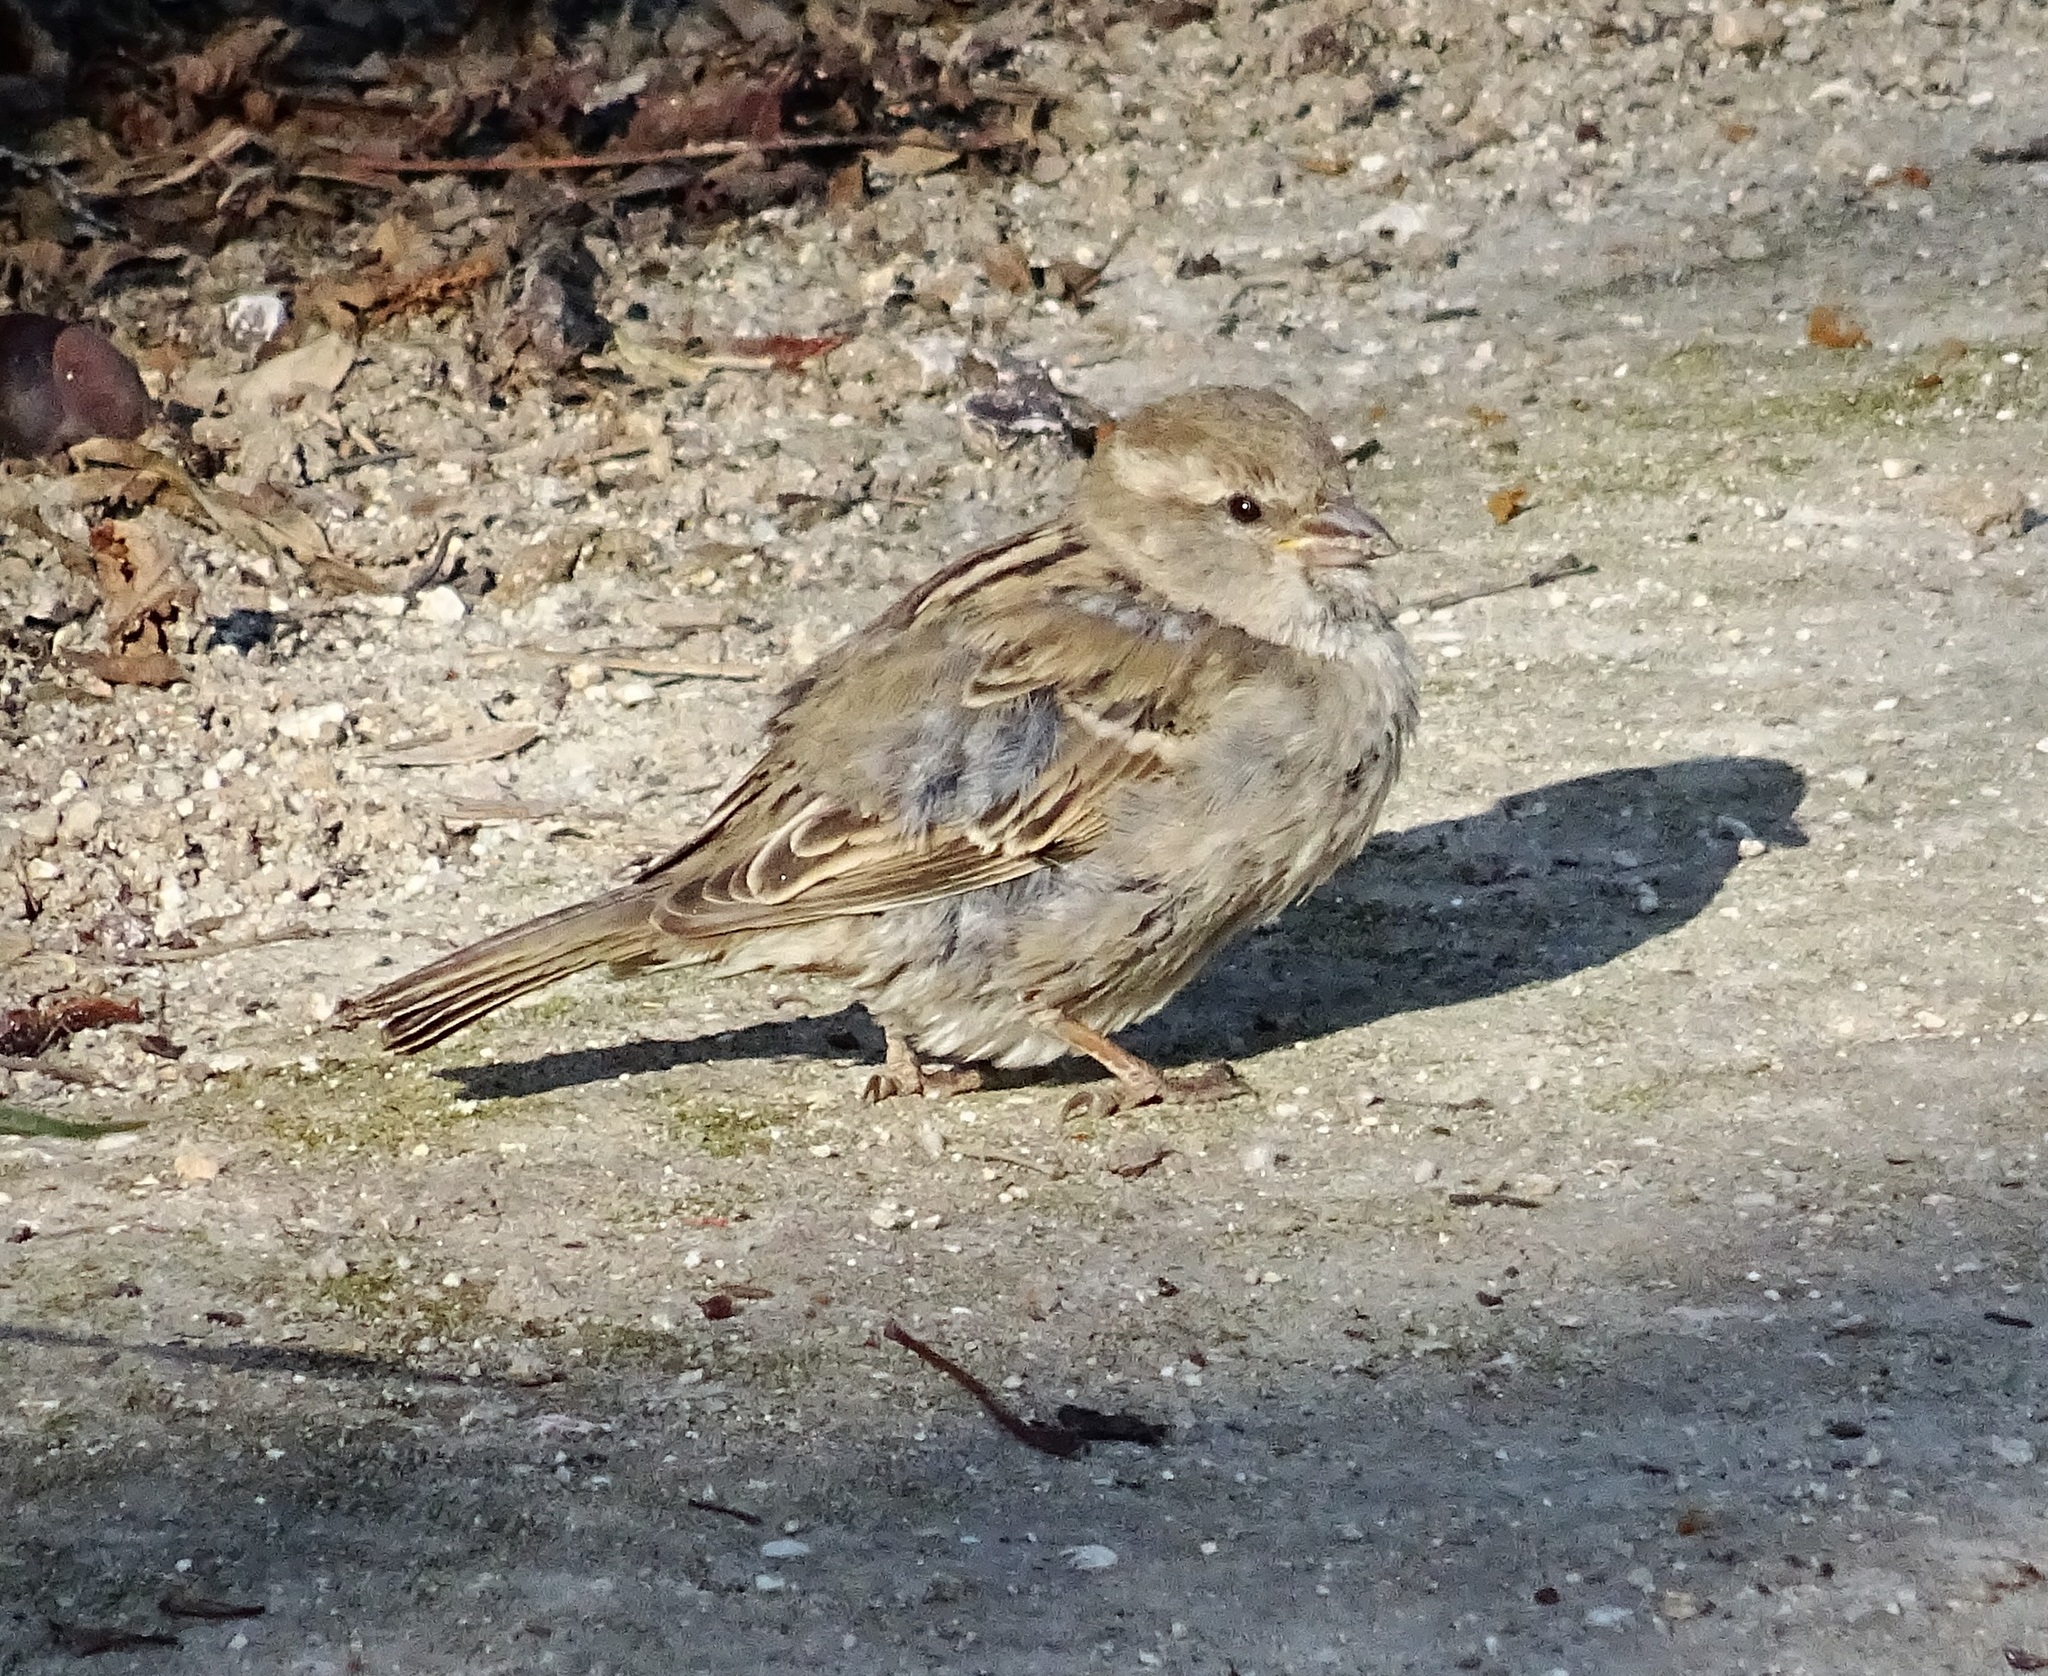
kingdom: Animalia
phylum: Chordata
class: Aves
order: Passeriformes
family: Passeridae
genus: Passer
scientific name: Passer domesticus
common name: House sparrow
